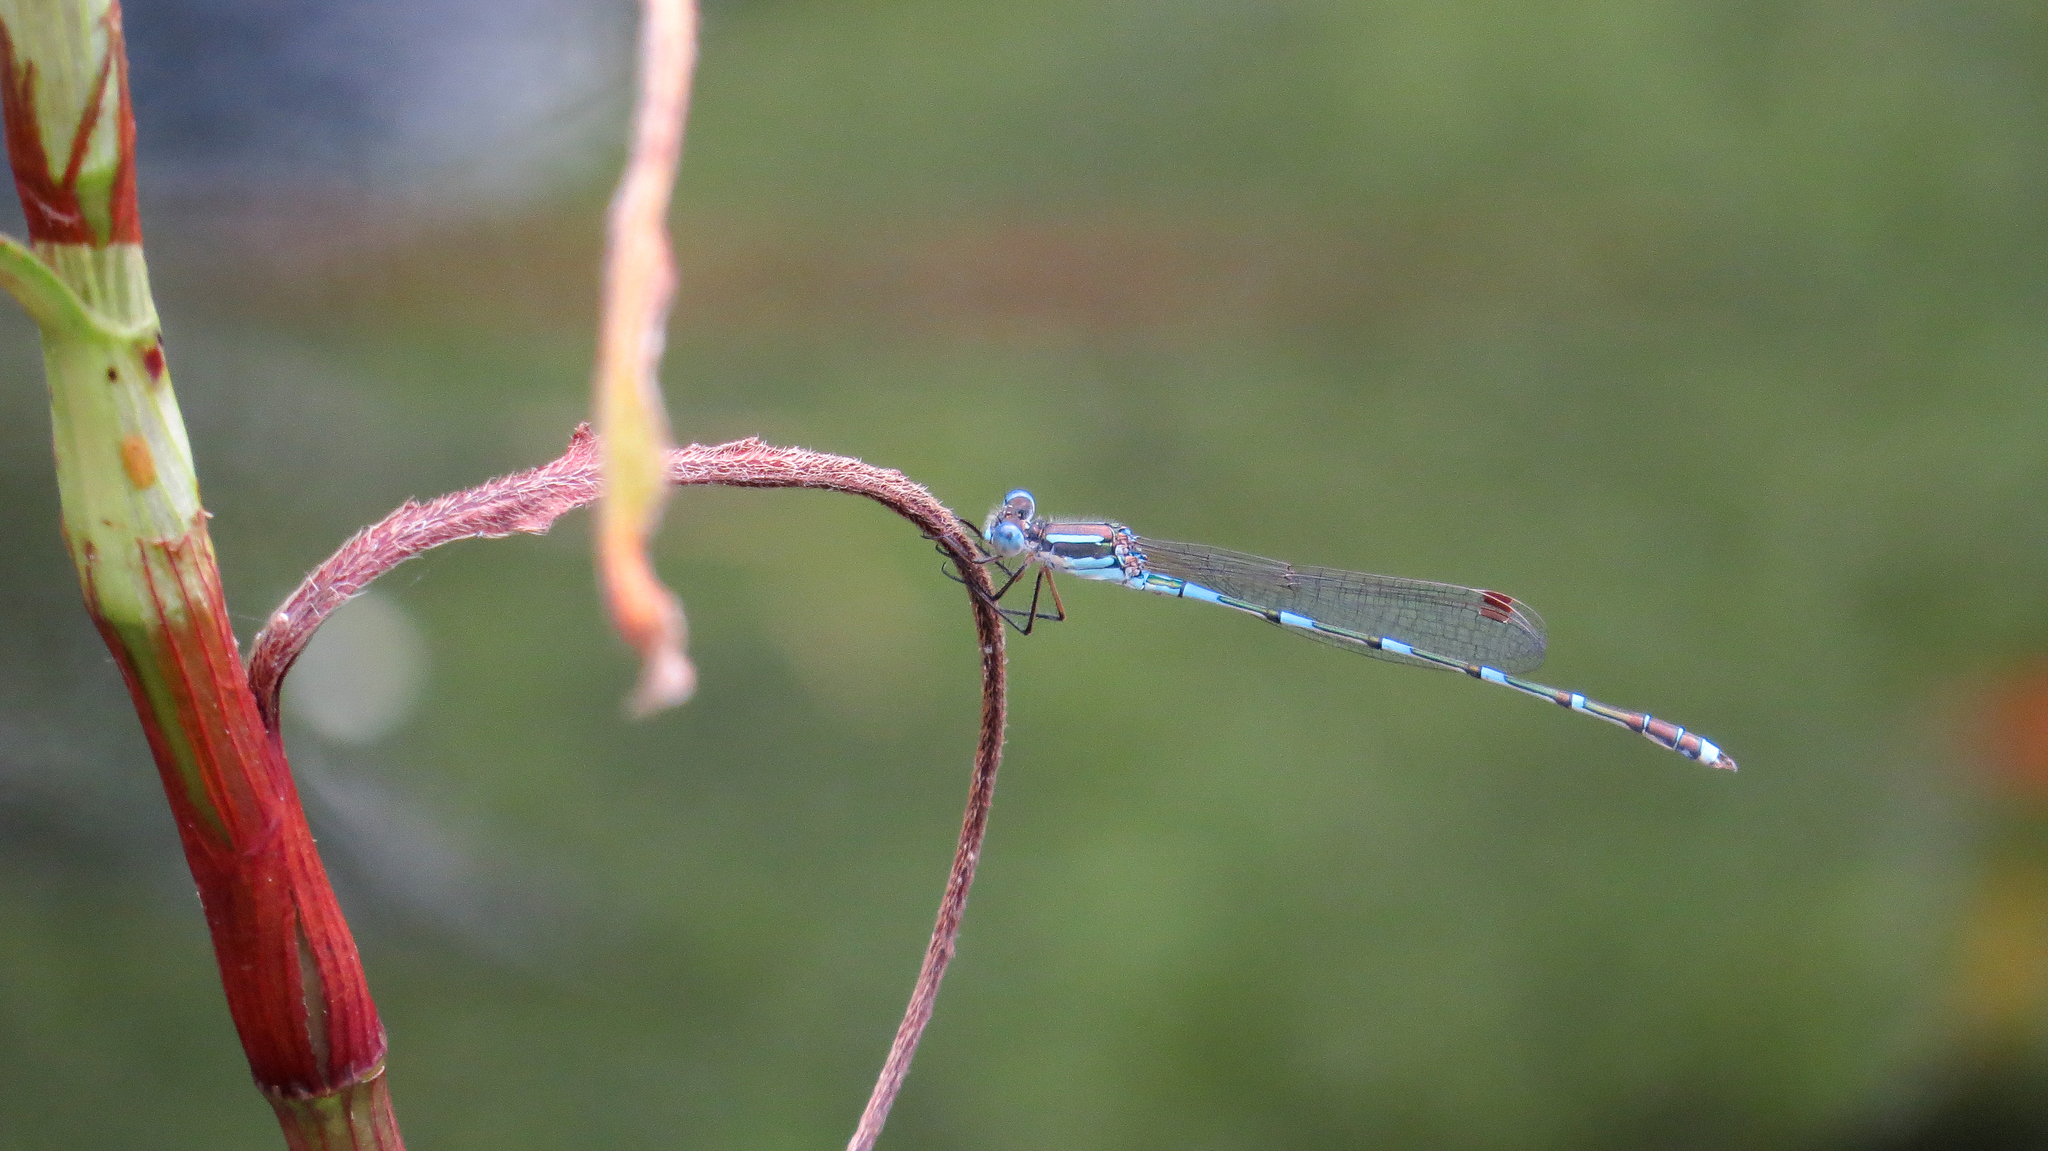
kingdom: Animalia
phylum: Arthropoda
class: Insecta
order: Odonata
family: Lestidae
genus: Austrolestes
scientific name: Austrolestes leda
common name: Wandering ringtail
